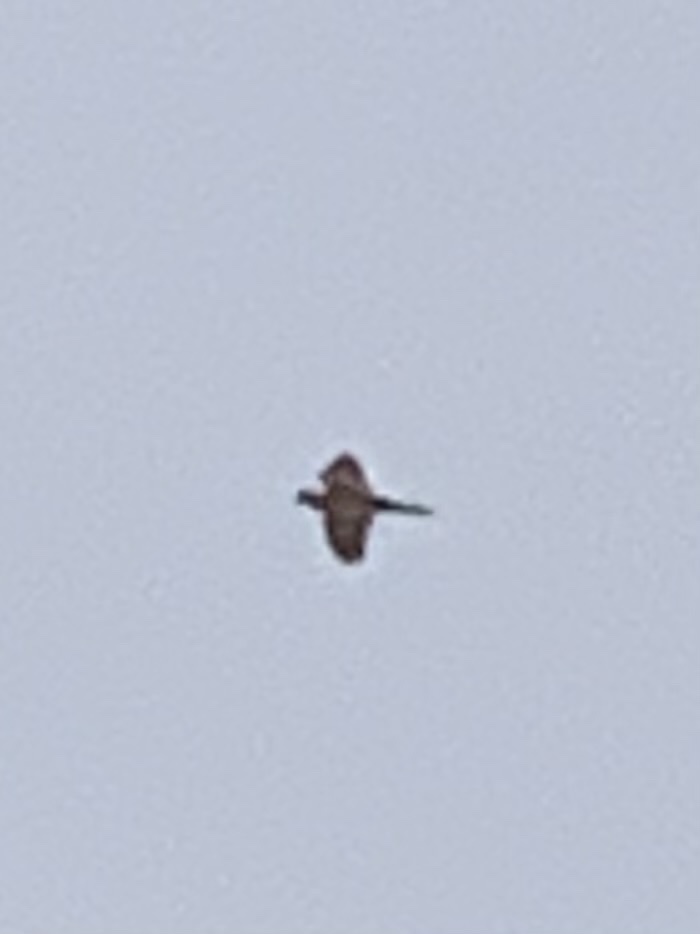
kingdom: Animalia
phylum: Chordata
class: Aves
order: Columbiformes
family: Columbidae
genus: Zenaida
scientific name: Zenaida macroura
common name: Mourning dove
